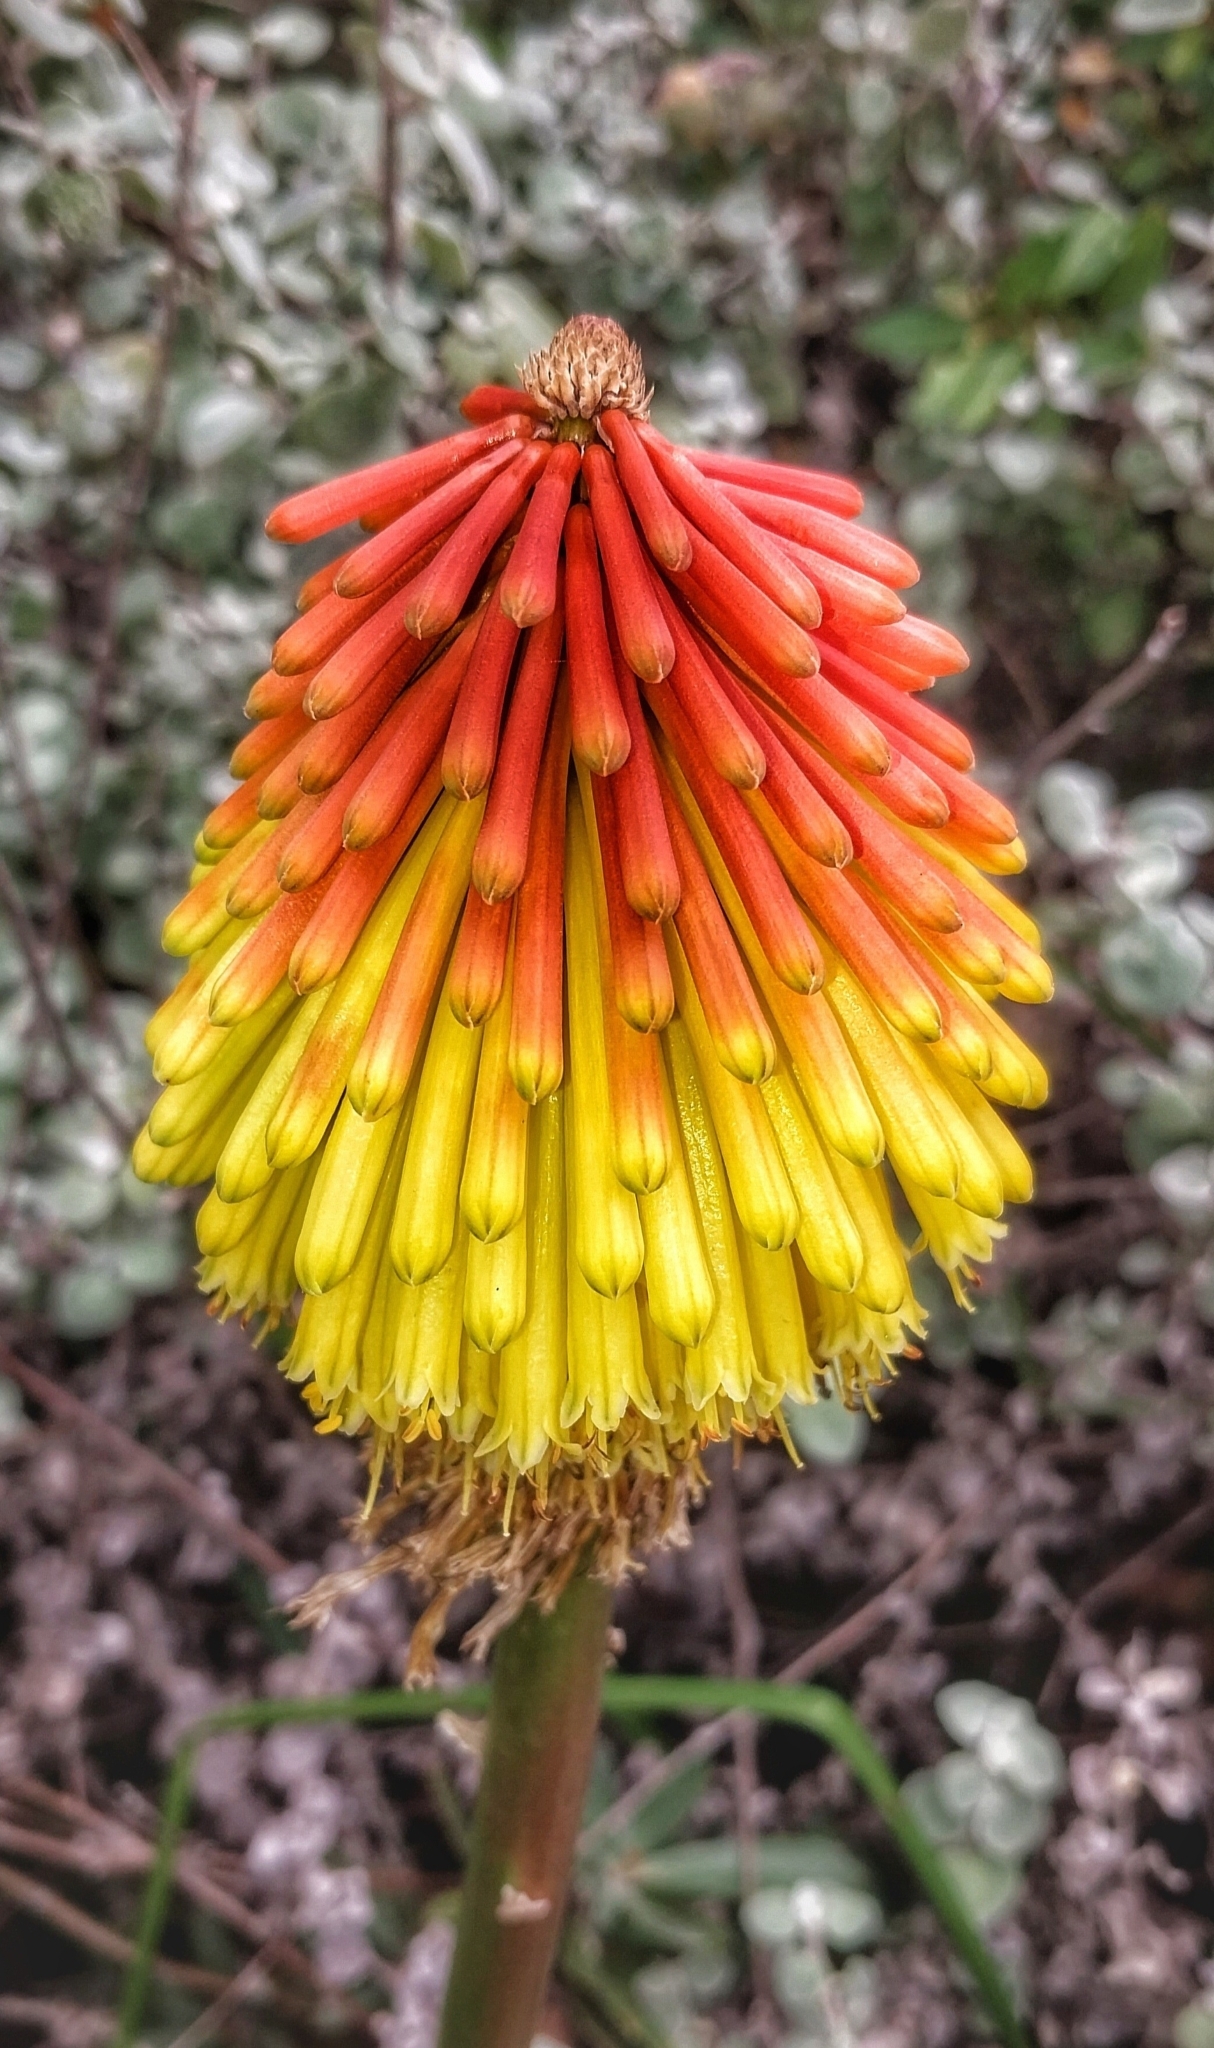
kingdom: Plantae
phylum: Tracheophyta
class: Liliopsida
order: Asparagales
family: Asphodelaceae
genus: Kniphofia
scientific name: Kniphofia uvaria
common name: Red-hot-poker
